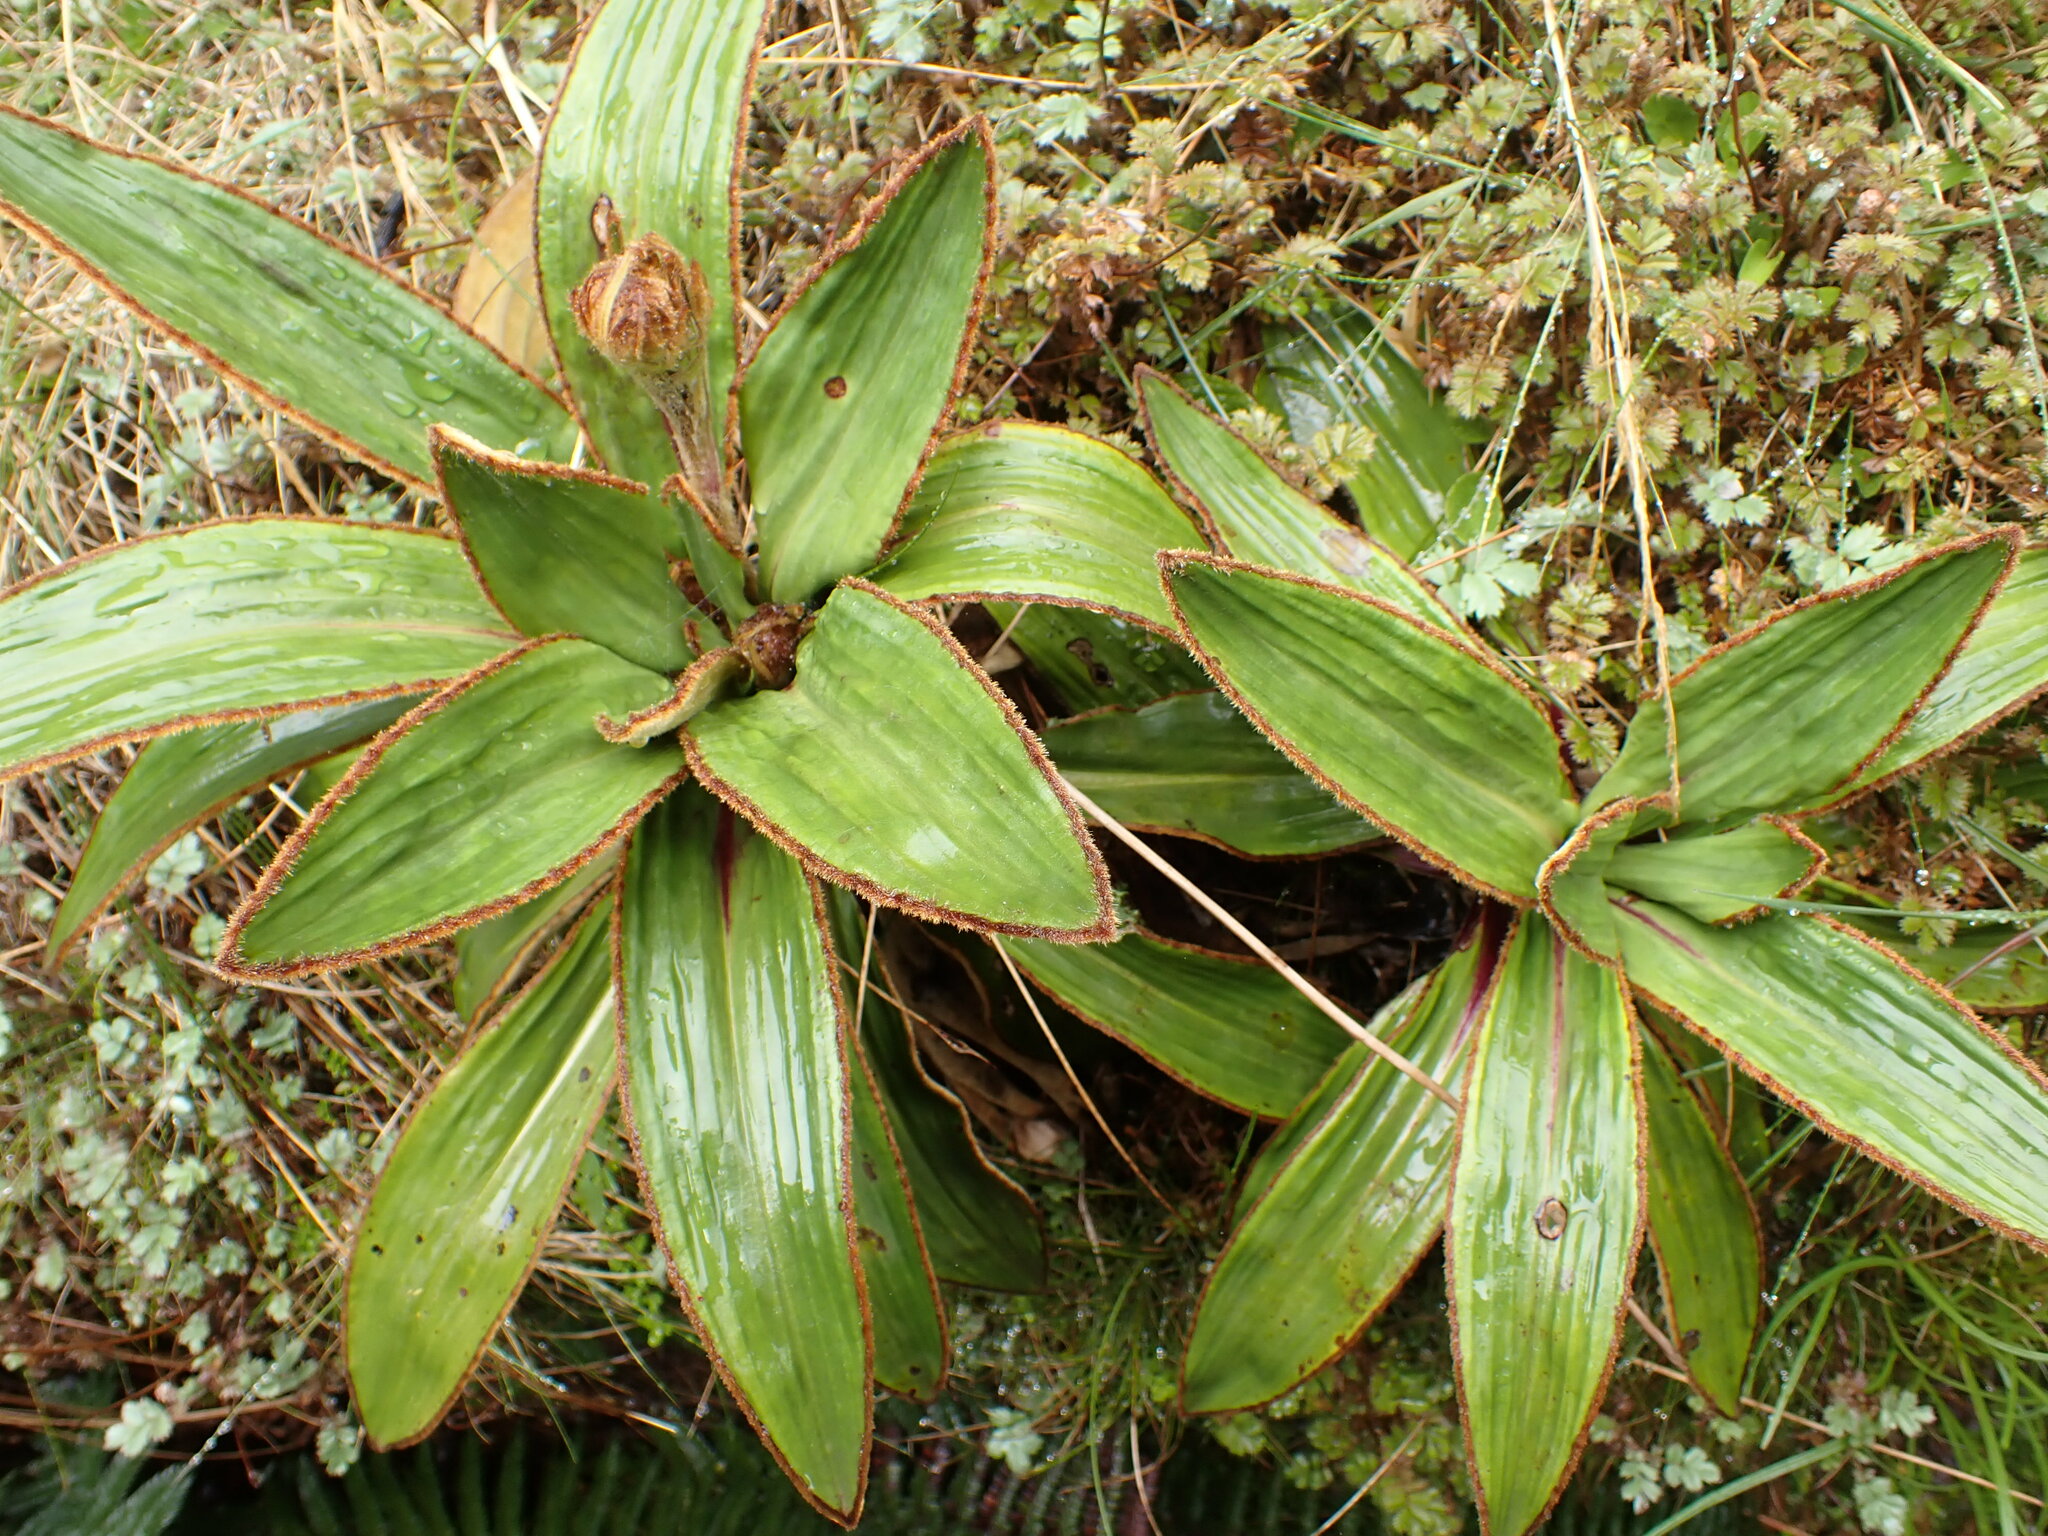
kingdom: Plantae
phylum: Tracheophyta
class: Magnoliopsida
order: Asterales
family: Asteraceae
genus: Celmisia
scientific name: Celmisia traversii
